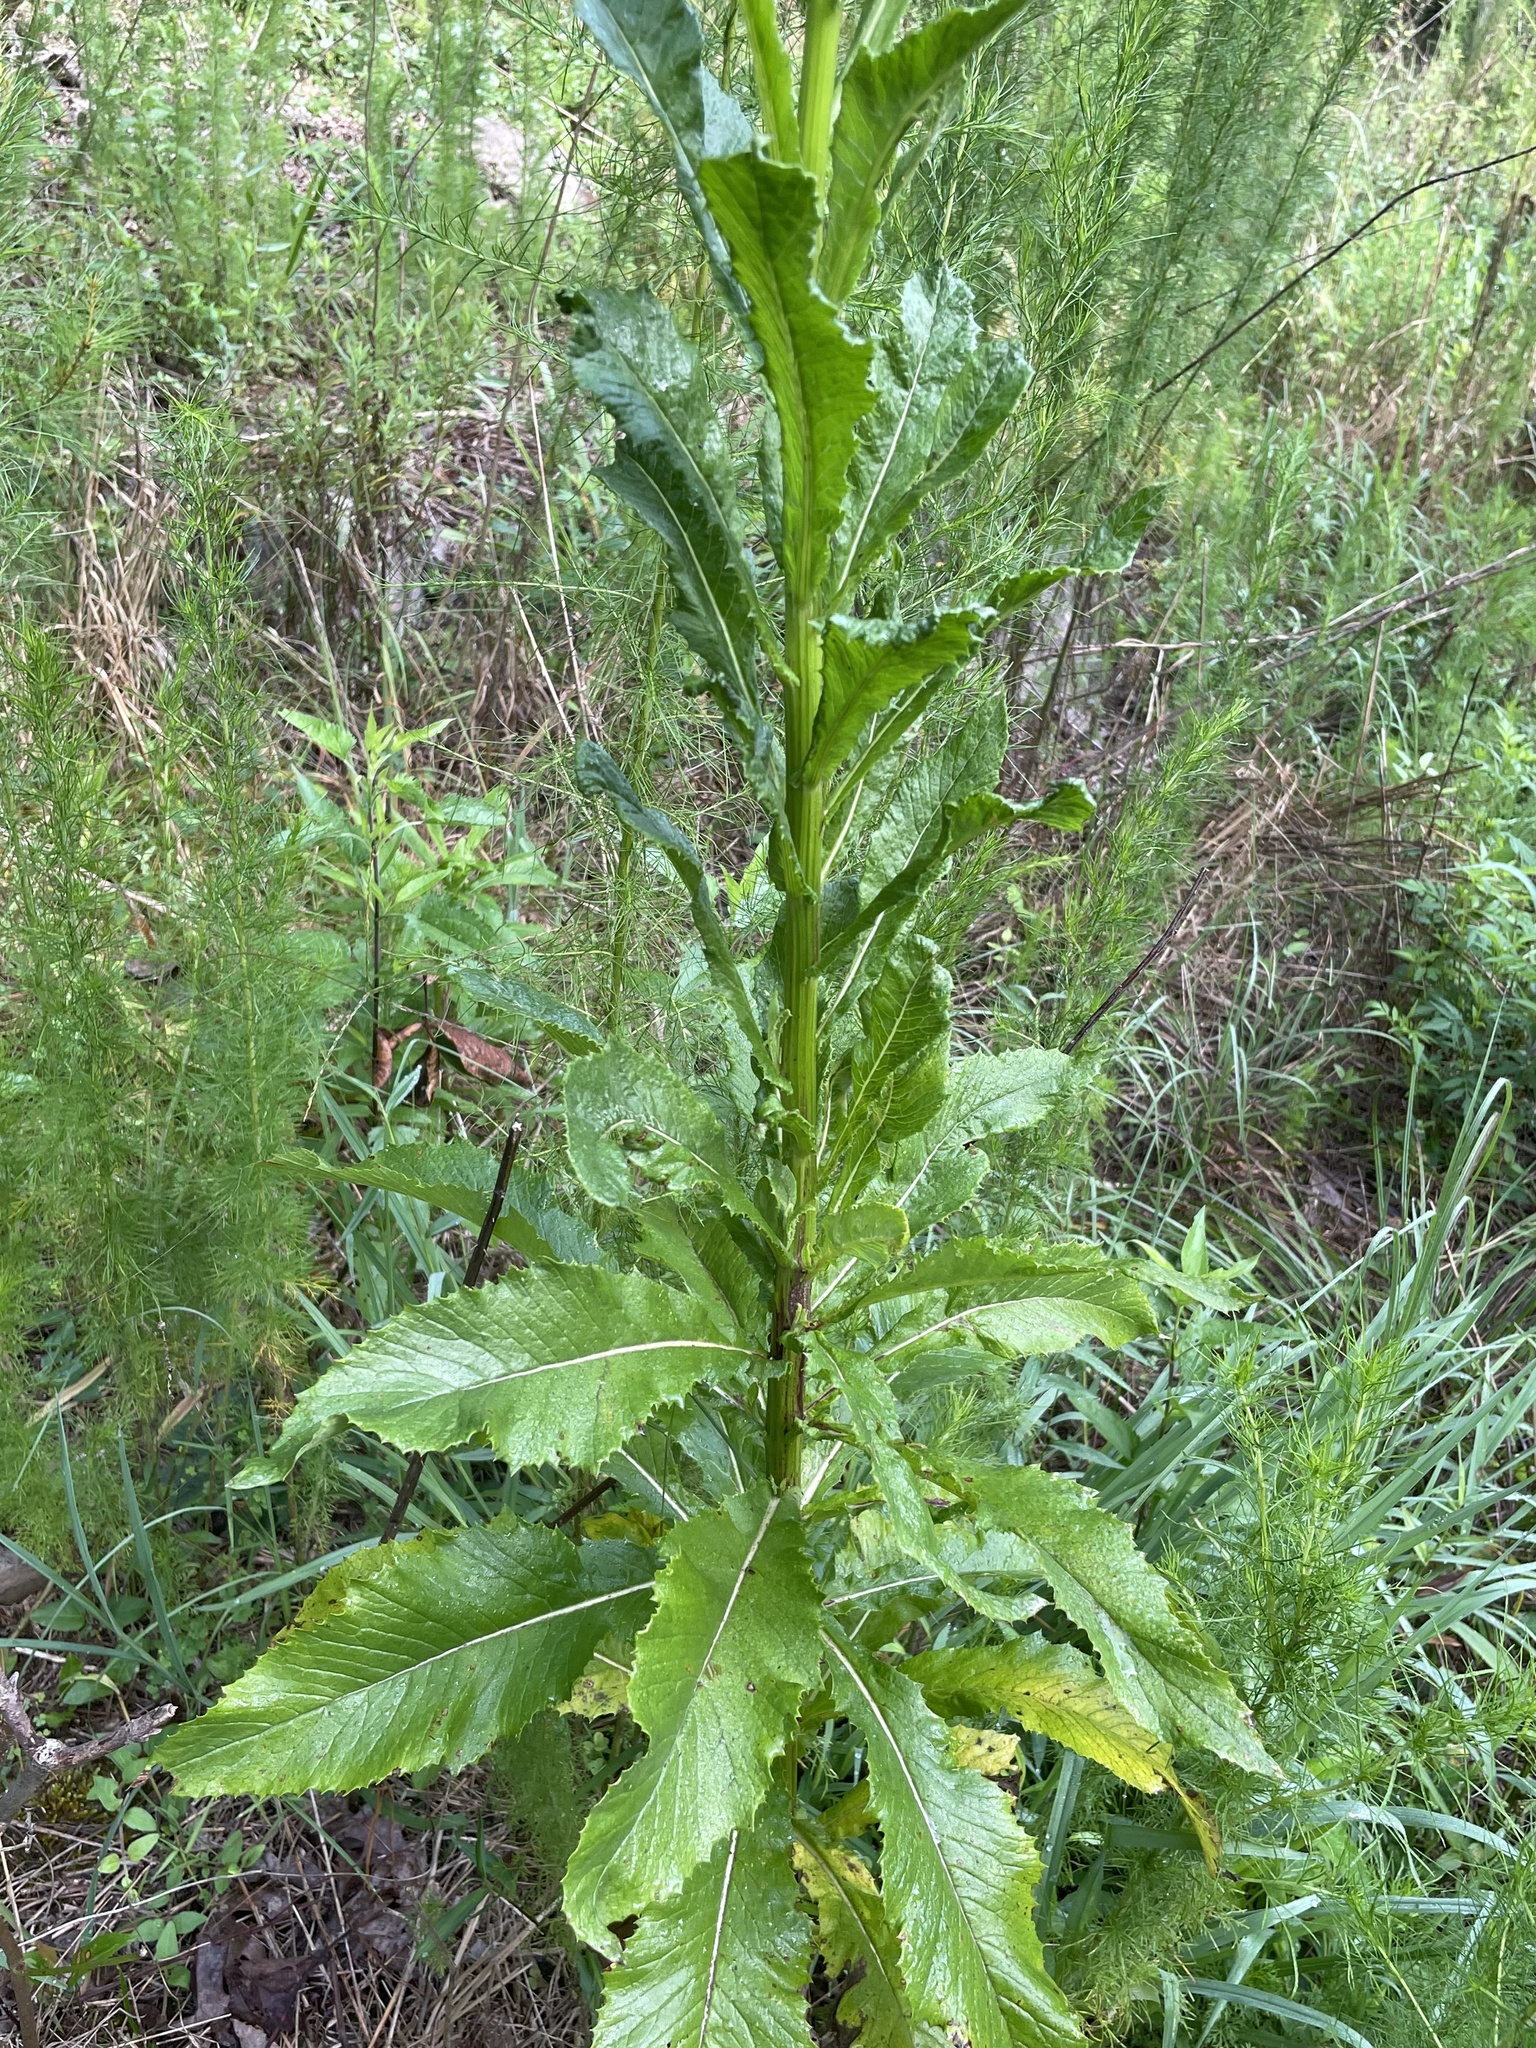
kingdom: Plantae
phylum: Tracheophyta
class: Magnoliopsida
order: Asterales
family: Asteraceae
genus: Erechtites
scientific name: Erechtites hieraciifolius
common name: American burnweed
